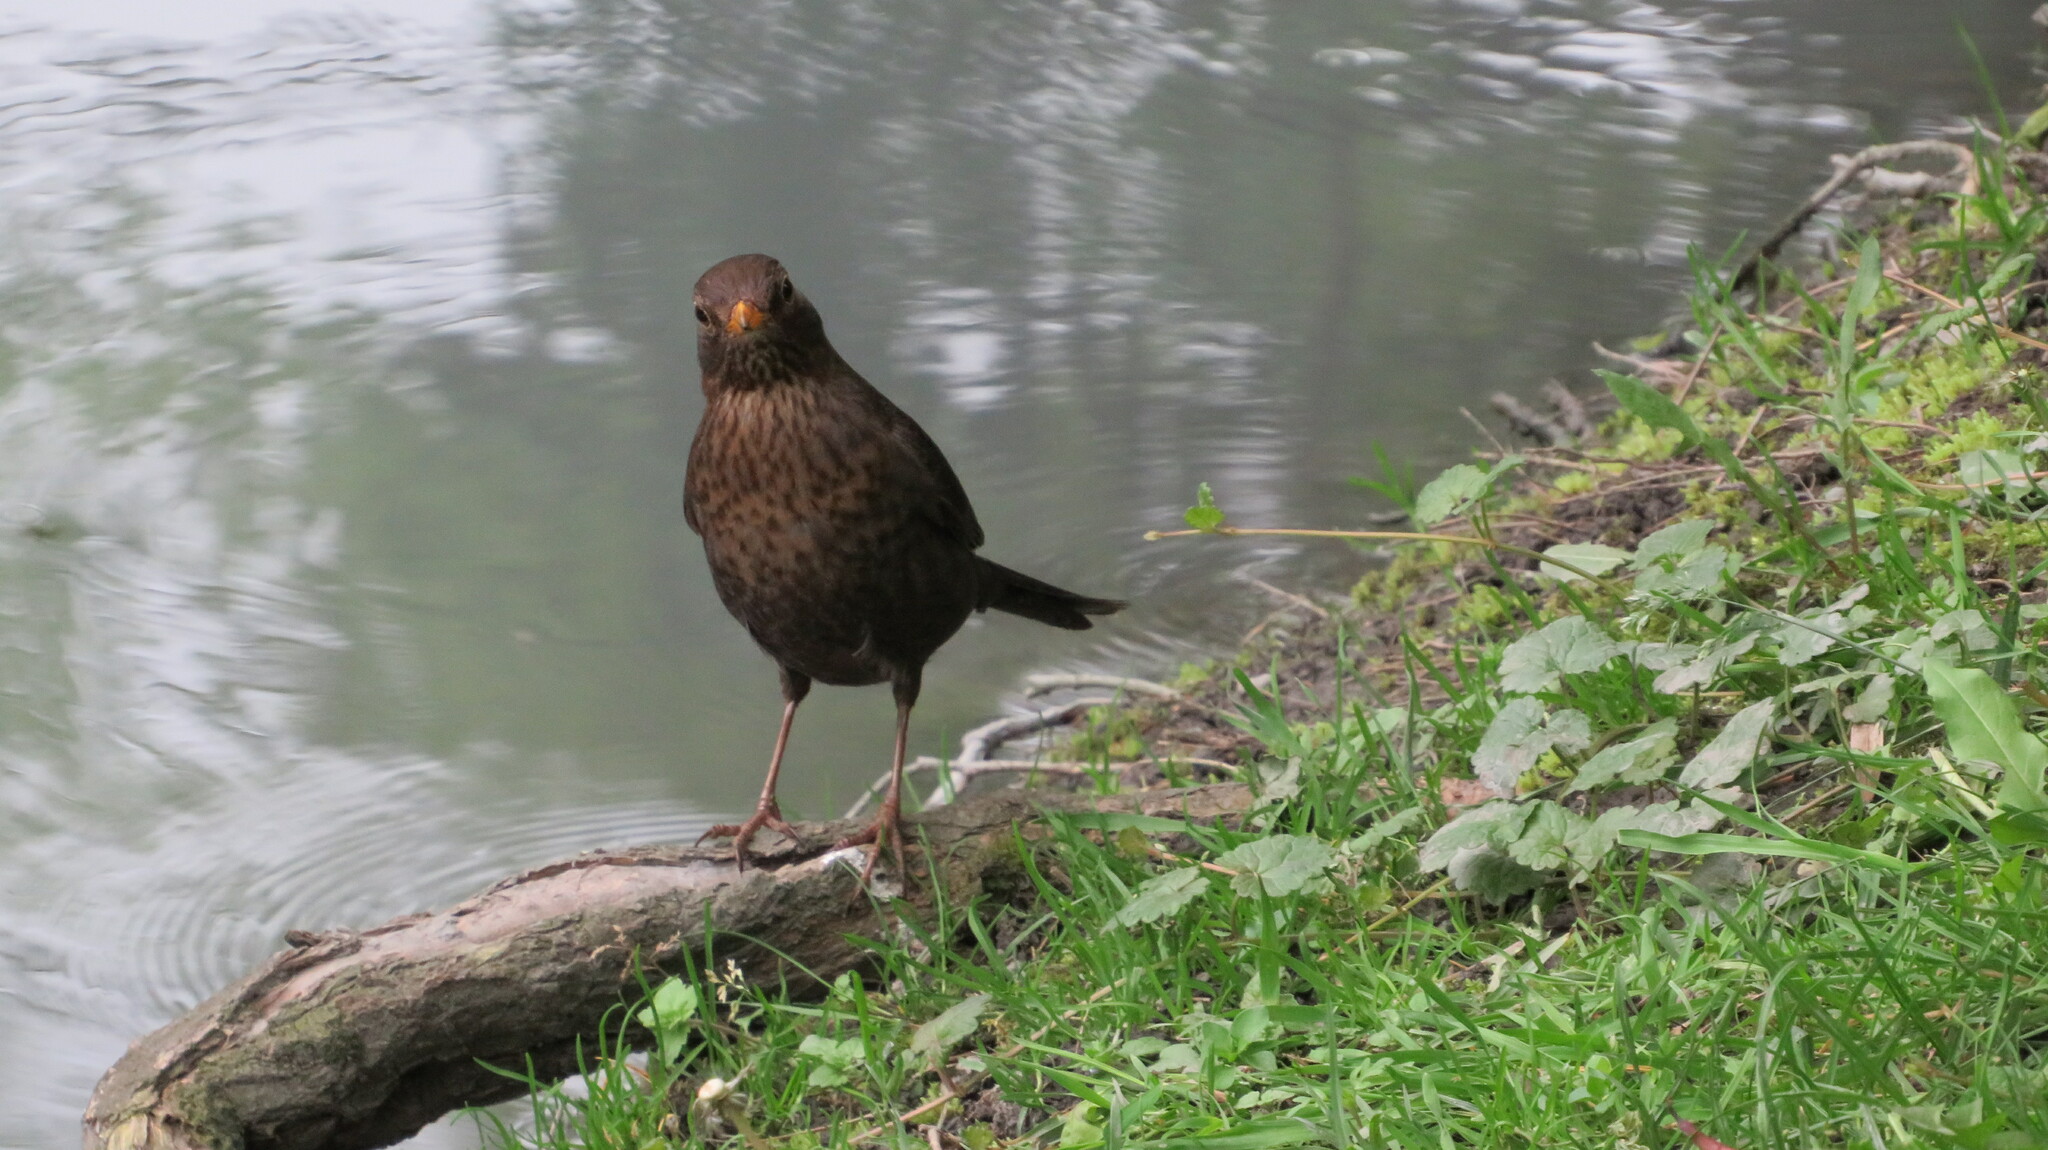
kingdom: Animalia
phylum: Chordata
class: Aves
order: Passeriformes
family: Turdidae
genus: Turdus
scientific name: Turdus merula
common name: Common blackbird
